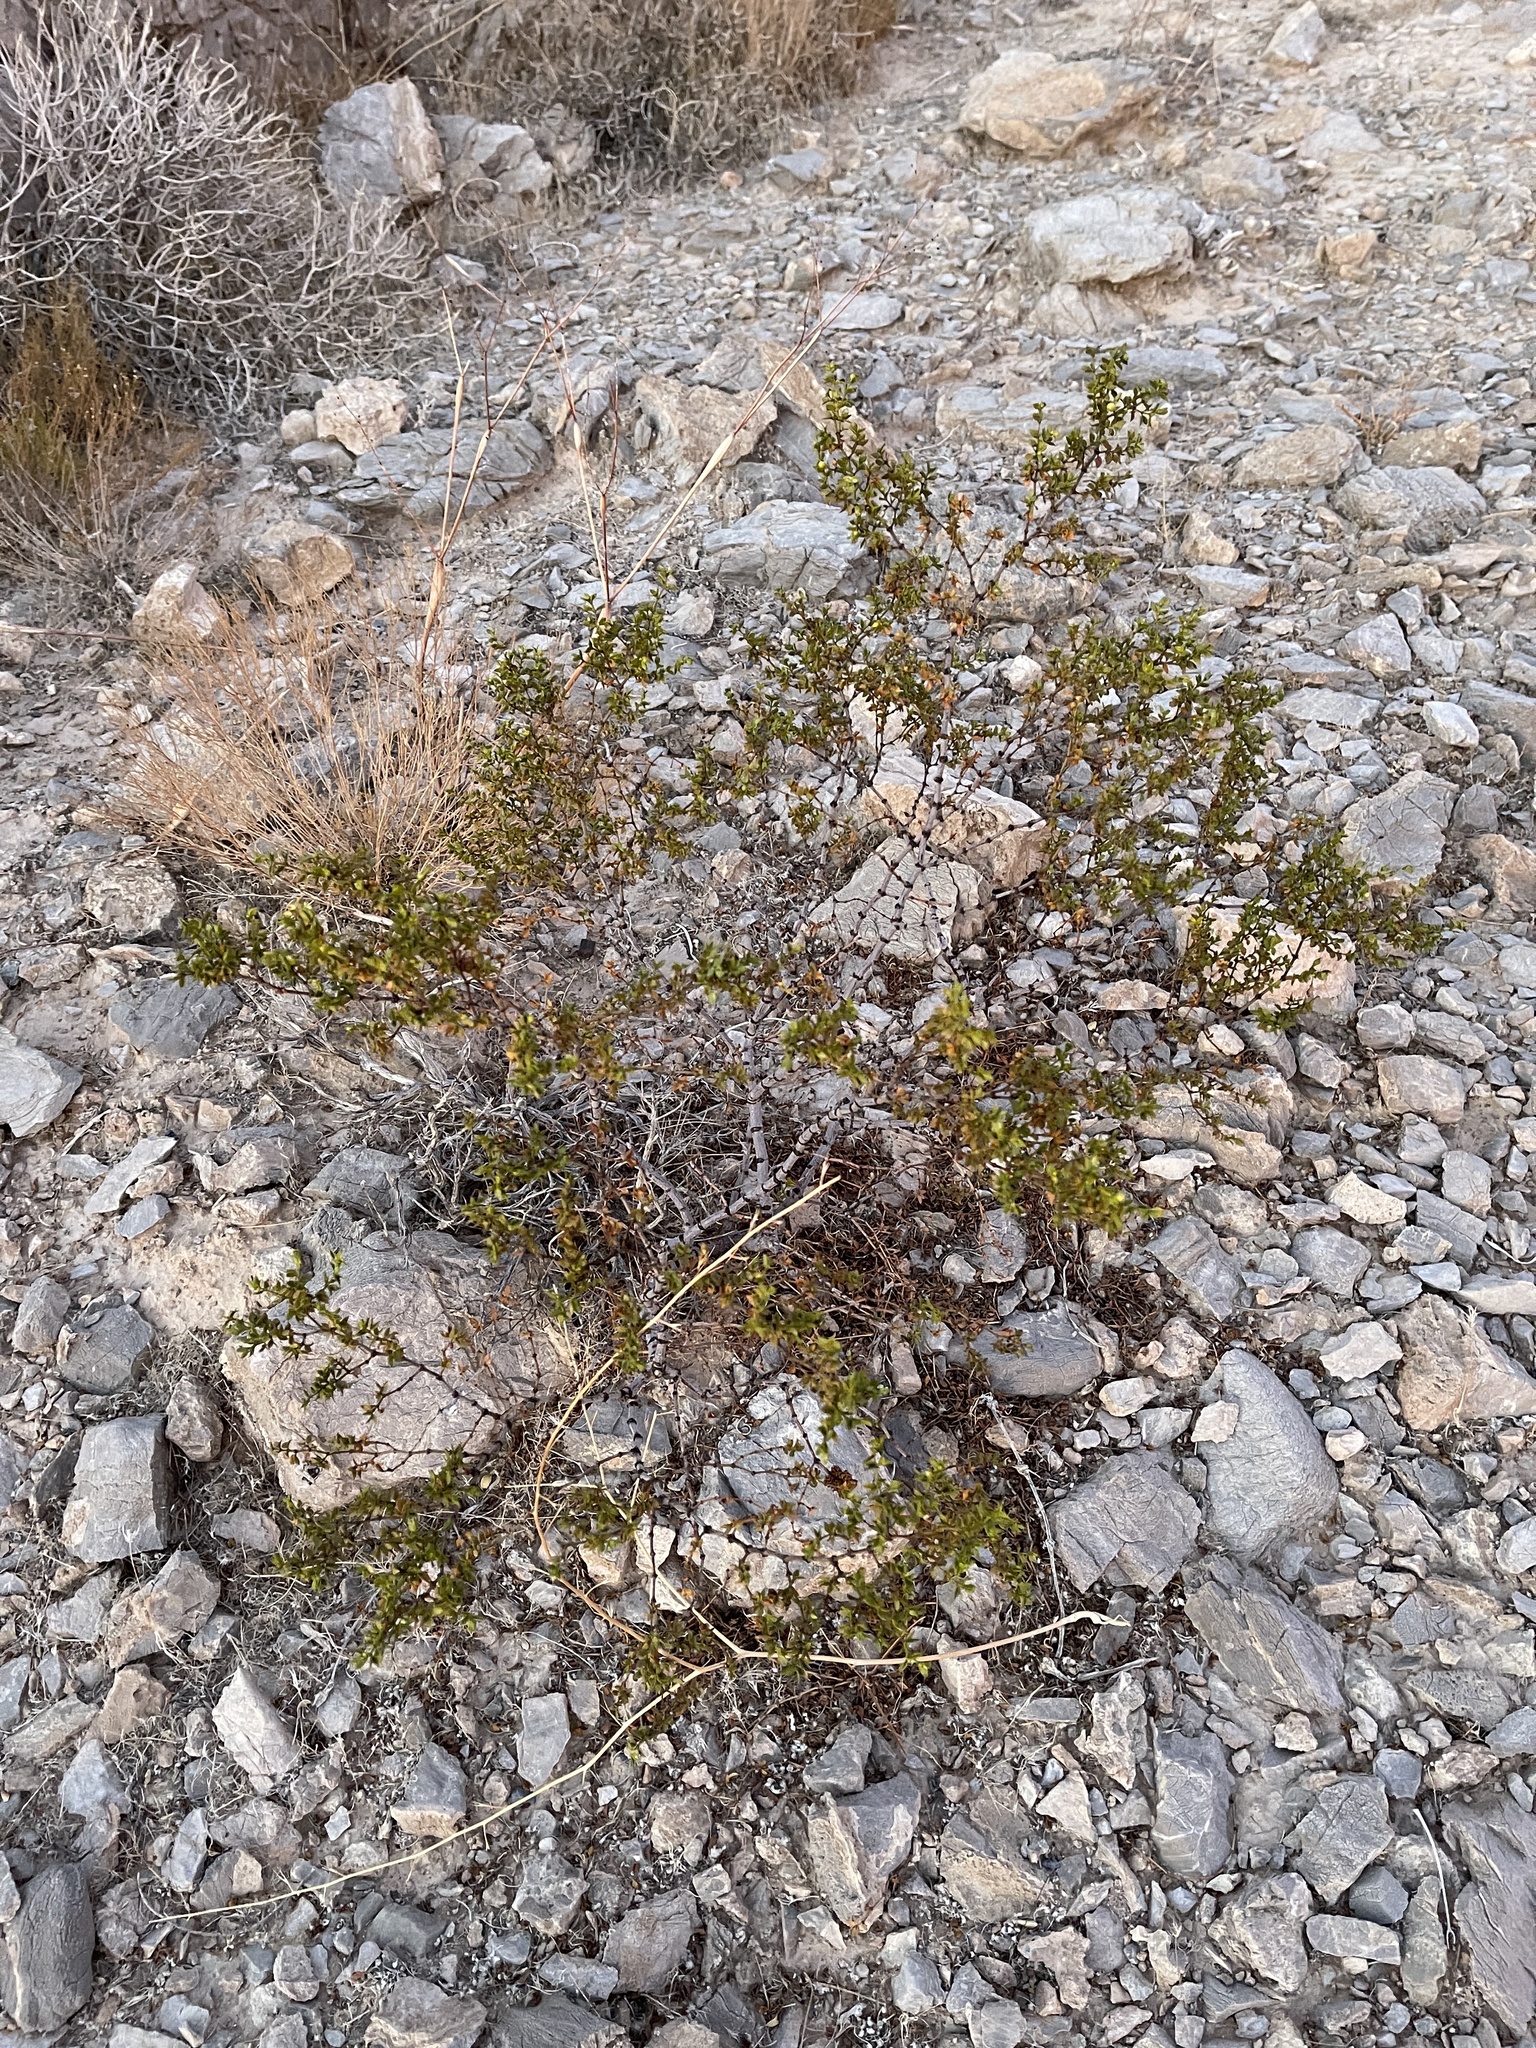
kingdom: Plantae
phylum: Tracheophyta
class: Magnoliopsida
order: Zygophyllales
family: Zygophyllaceae
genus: Larrea
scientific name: Larrea tridentata
